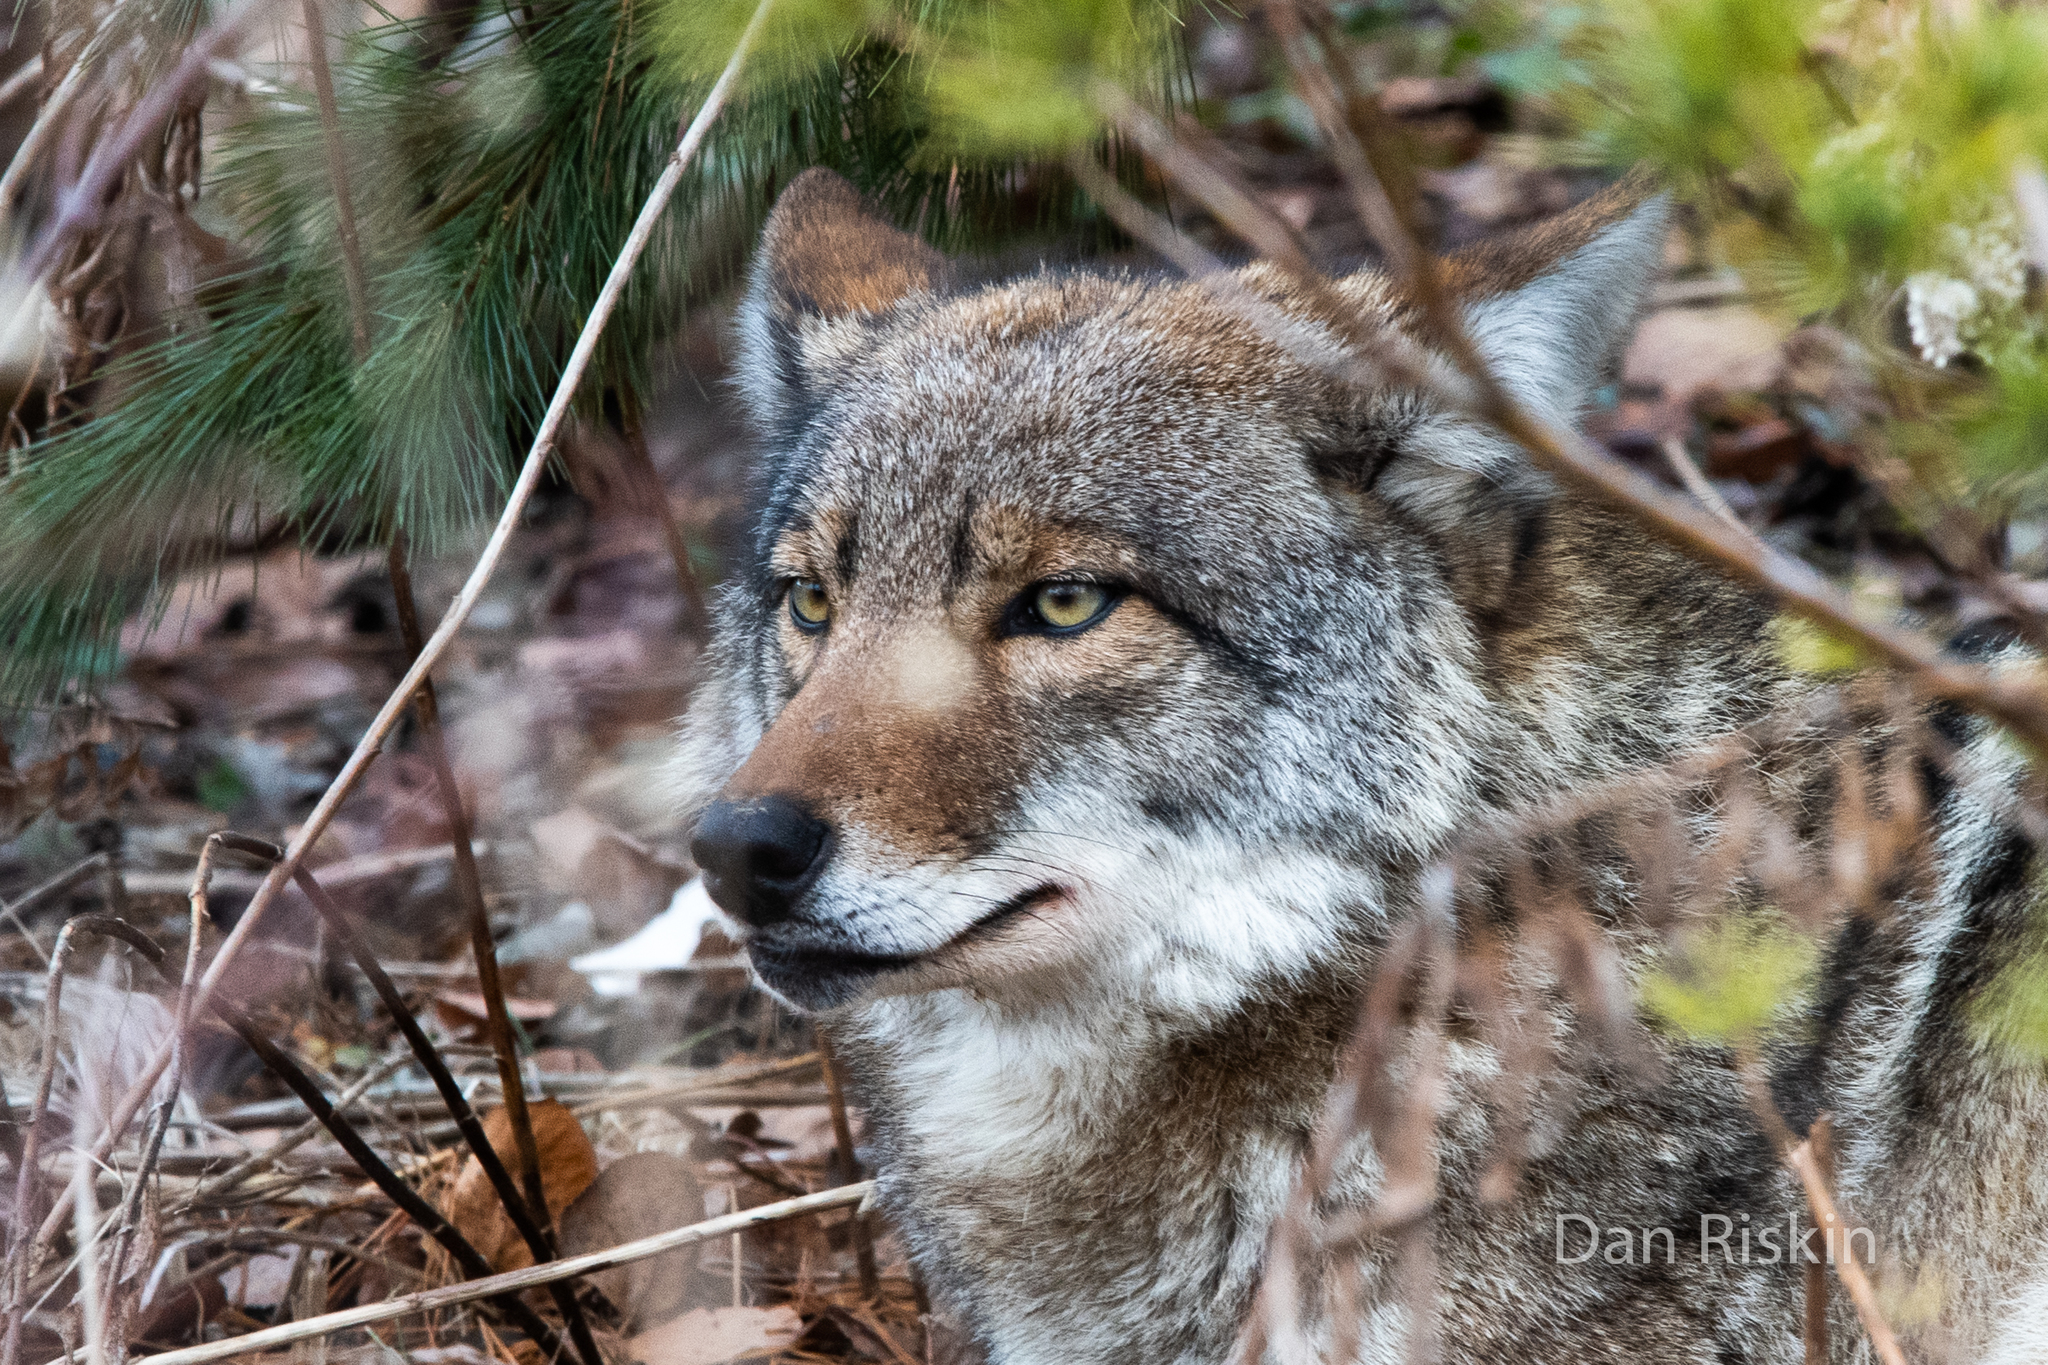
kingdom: Animalia
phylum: Chordata
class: Mammalia
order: Carnivora
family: Canidae
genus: Canis
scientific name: Canis latrans
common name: Coyote
